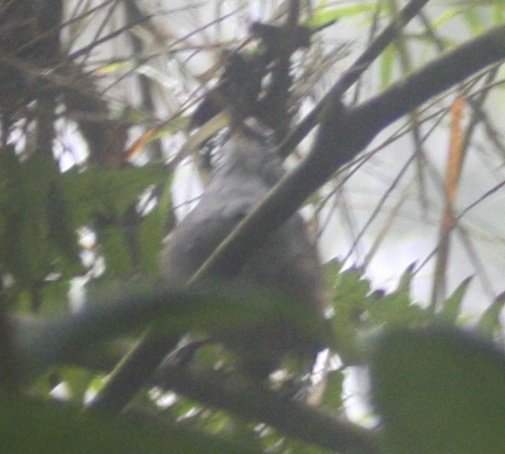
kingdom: Animalia
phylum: Chordata
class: Aves
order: Passeriformes
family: Troglodytidae
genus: Henicorhina
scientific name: Henicorhina leucophrys
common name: Gray-breasted wood-wren
